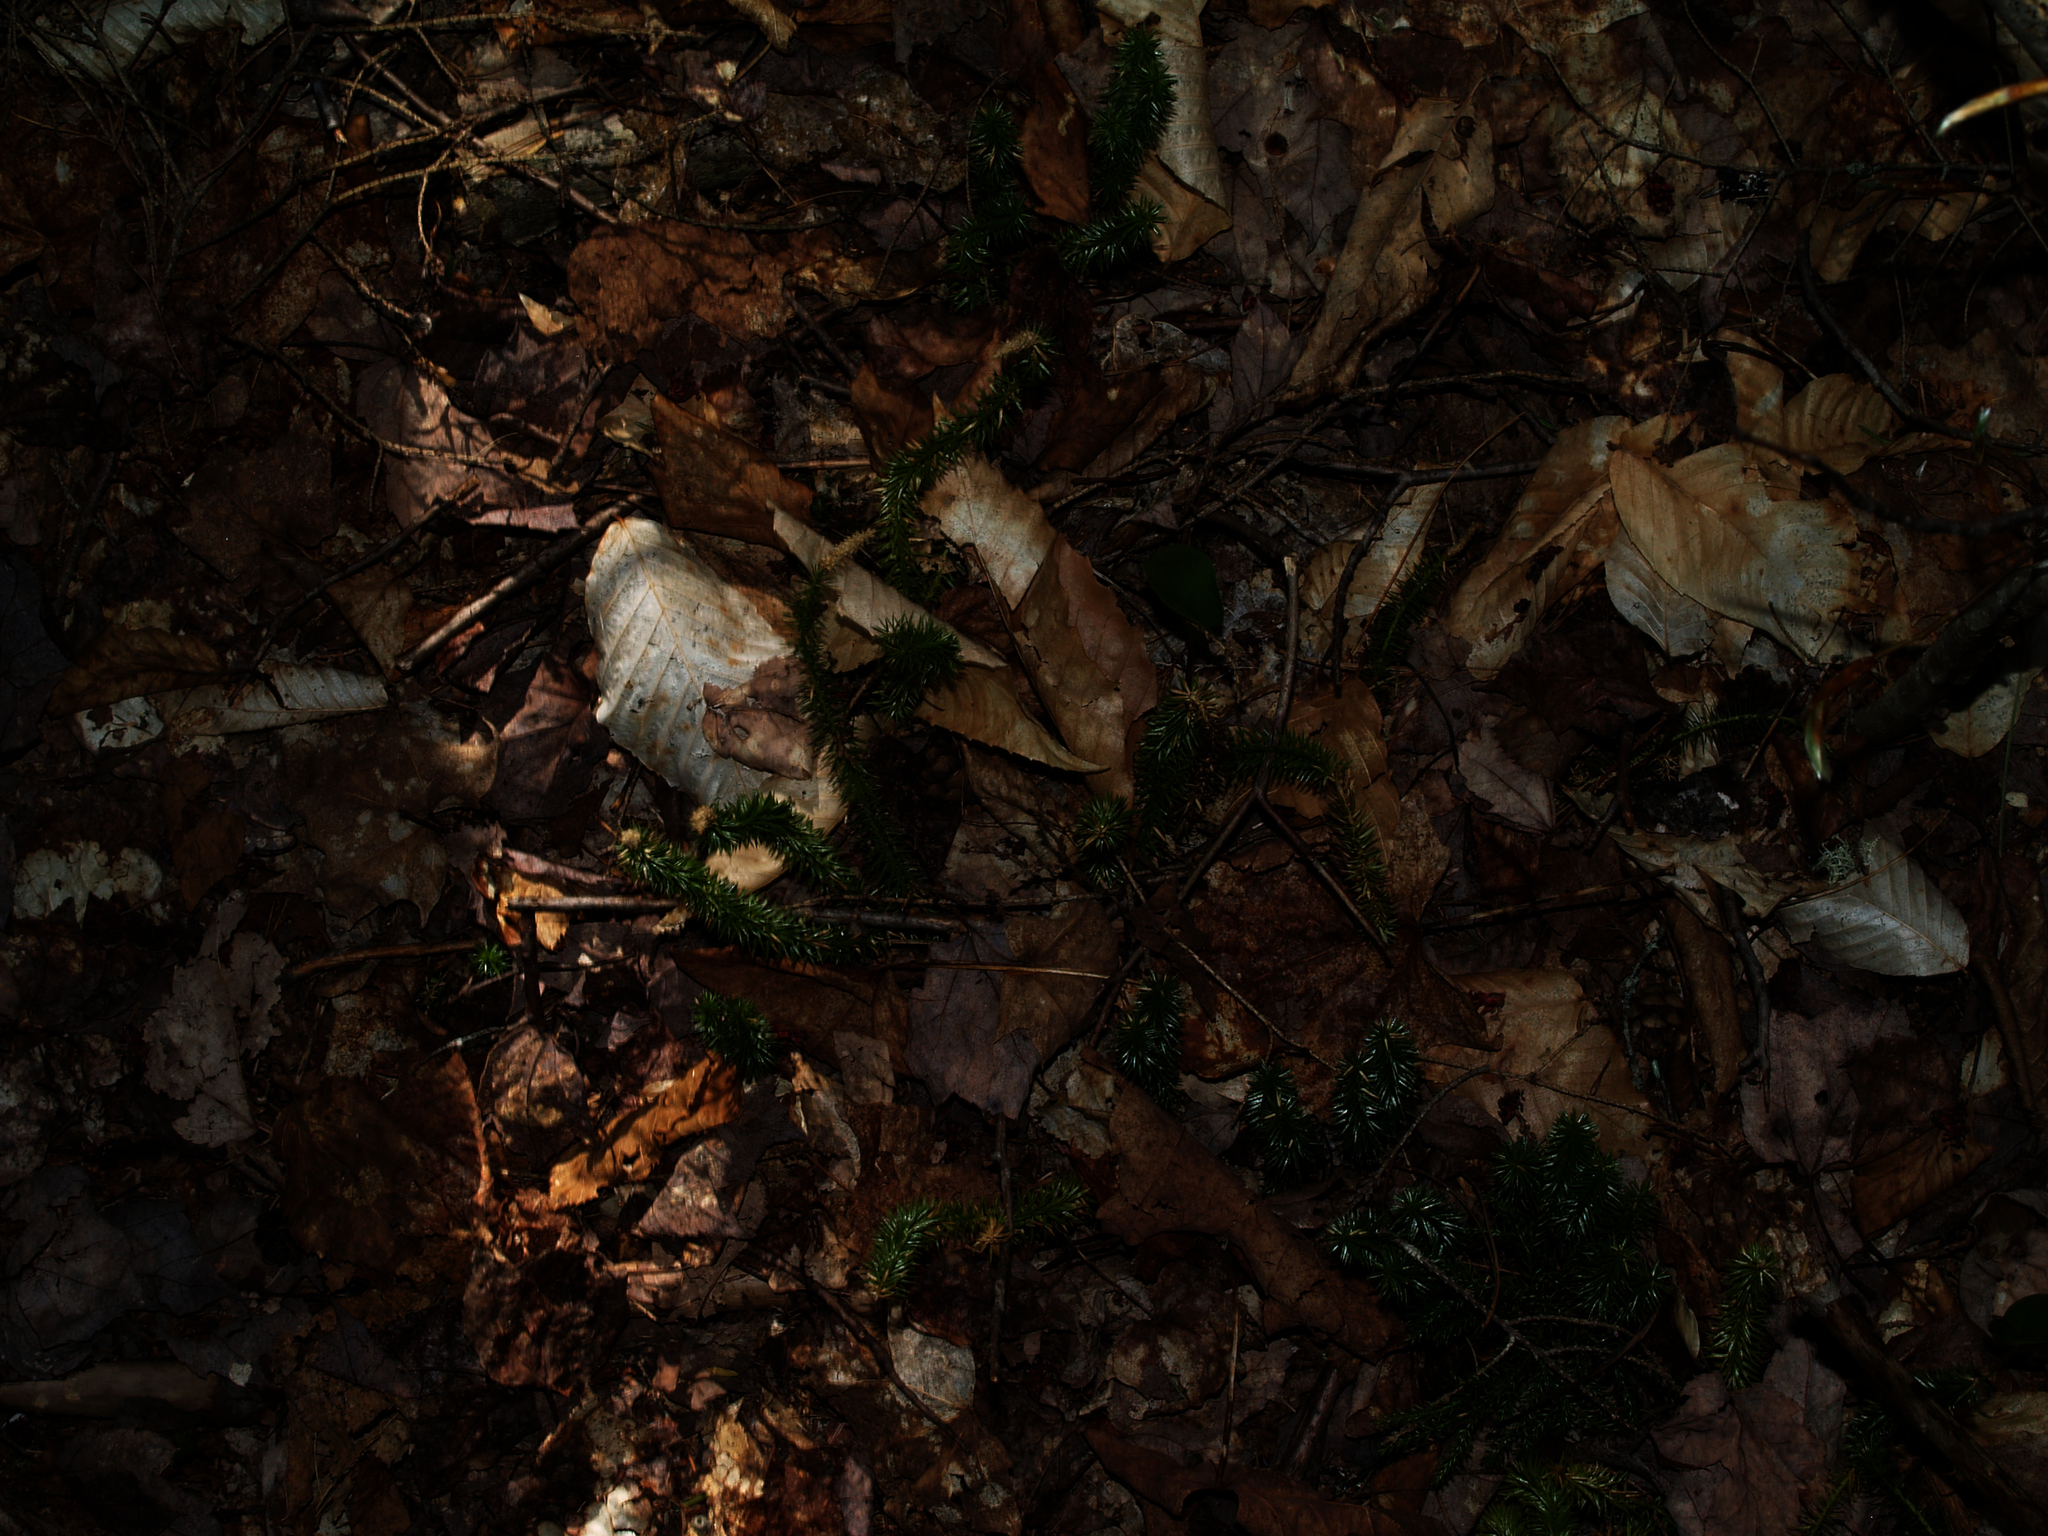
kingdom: Plantae
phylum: Tracheophyta
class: Lycopodiopsida
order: Lycopodiales
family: Lycopodiaceae
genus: Huperzia
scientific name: Huperzia lucidula
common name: Shining clubmoss
